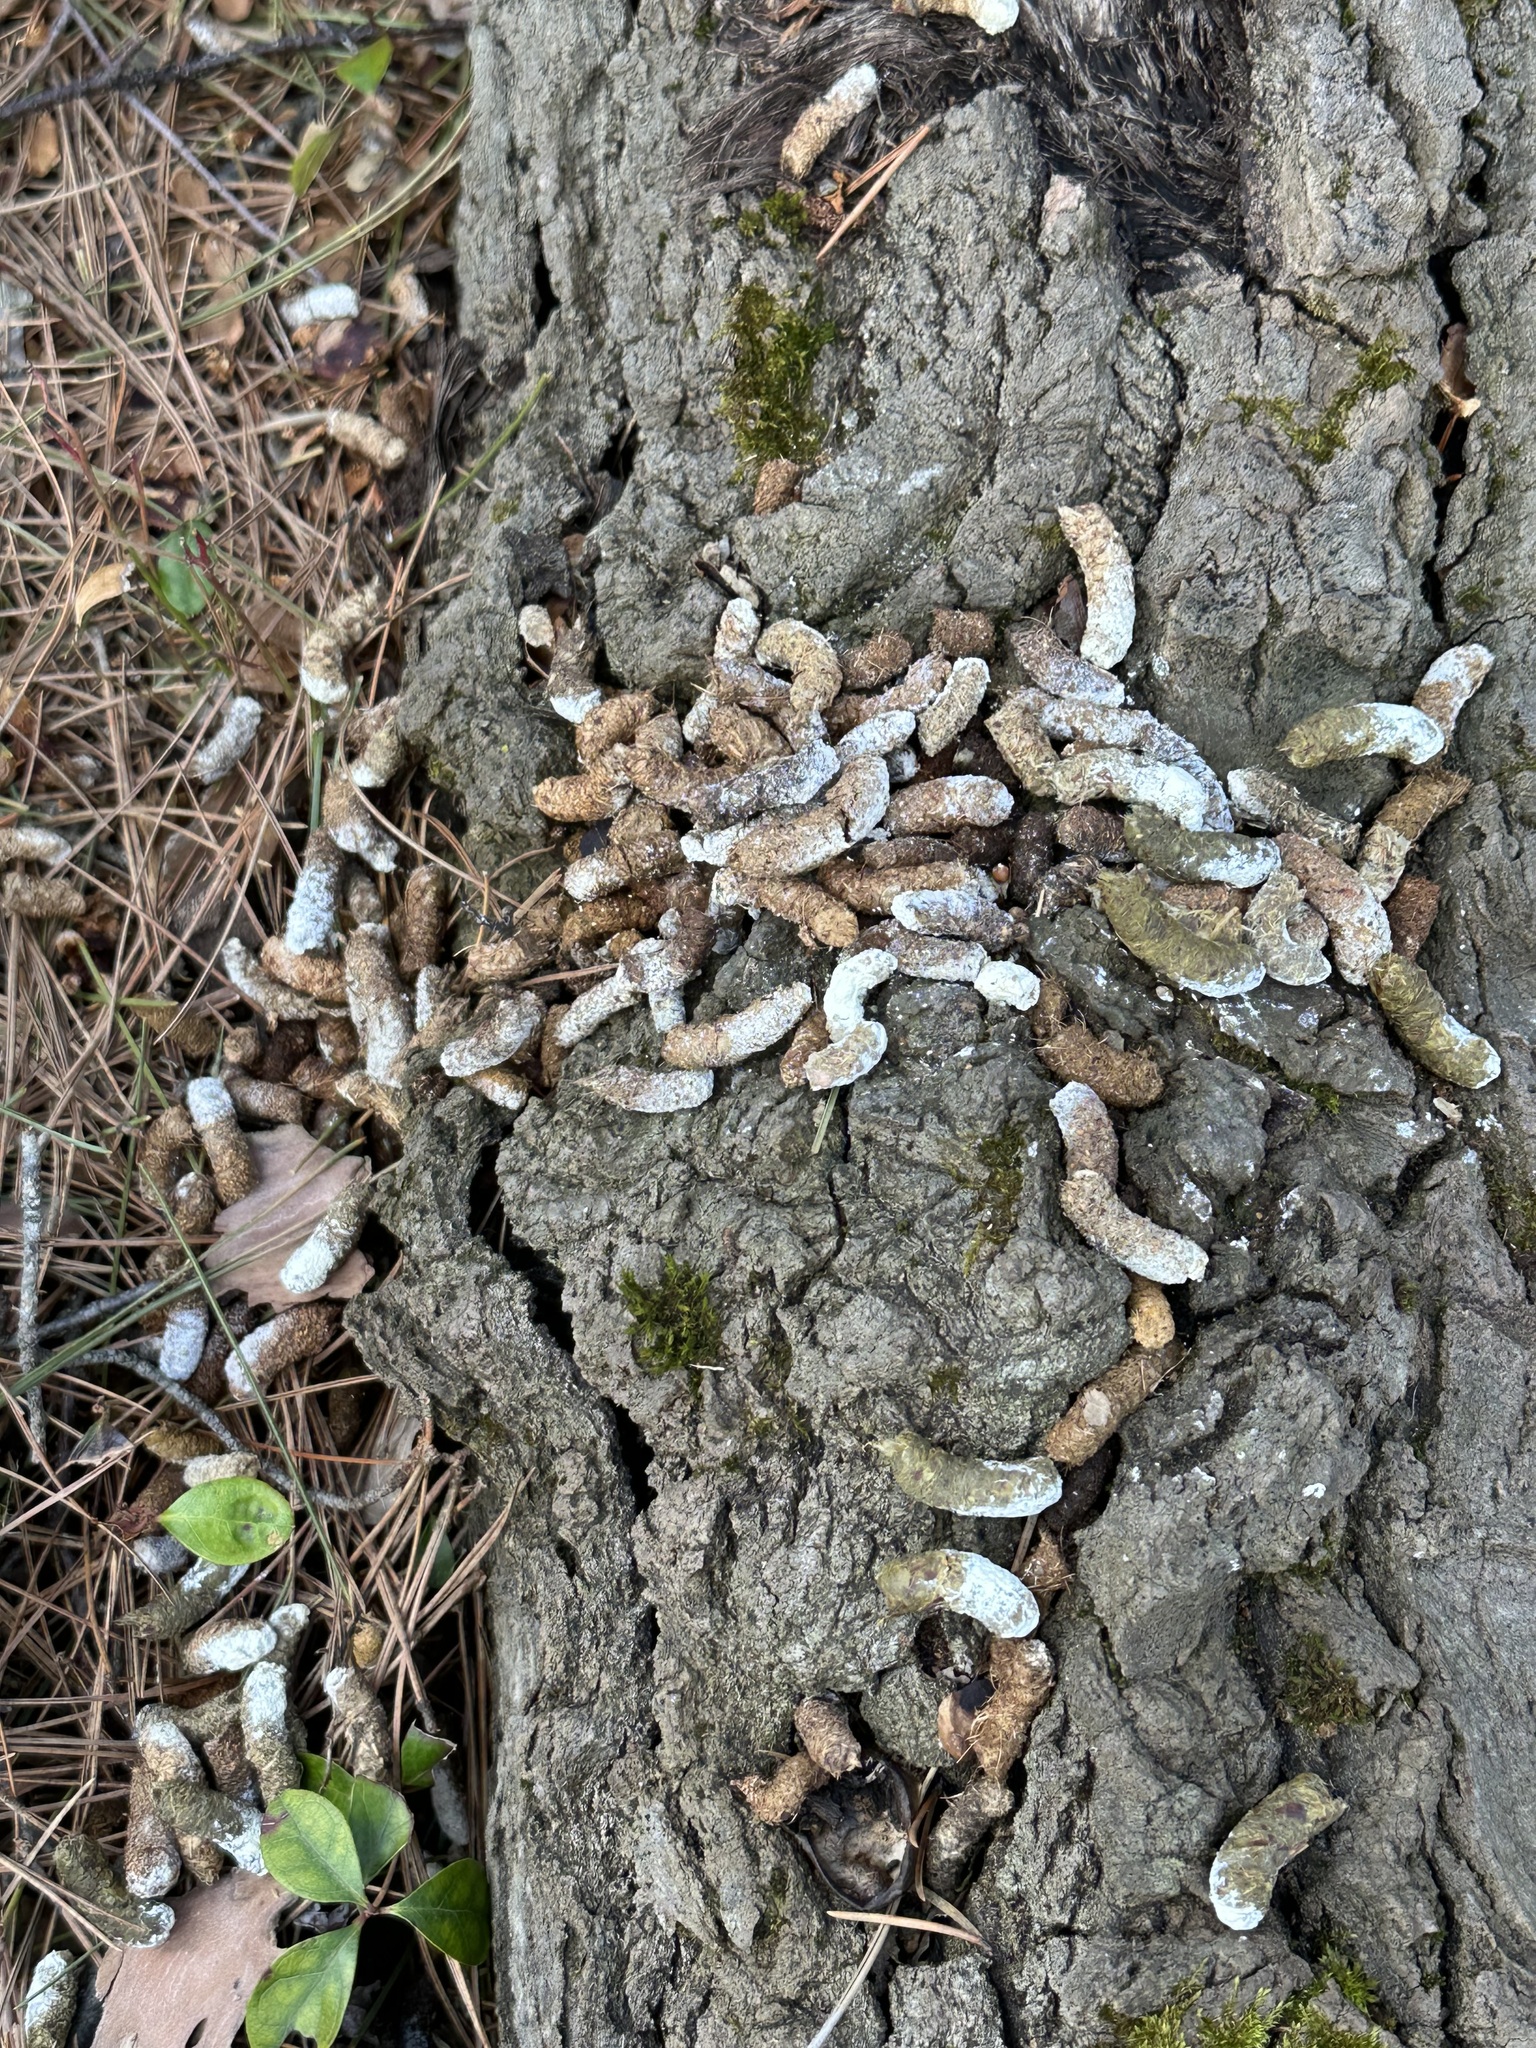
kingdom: Animalia
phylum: Chordata
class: Aves
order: Galliformes
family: Phasianidae
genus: Bonasa
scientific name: Bonasa umbellus
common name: Ruffed grouse
